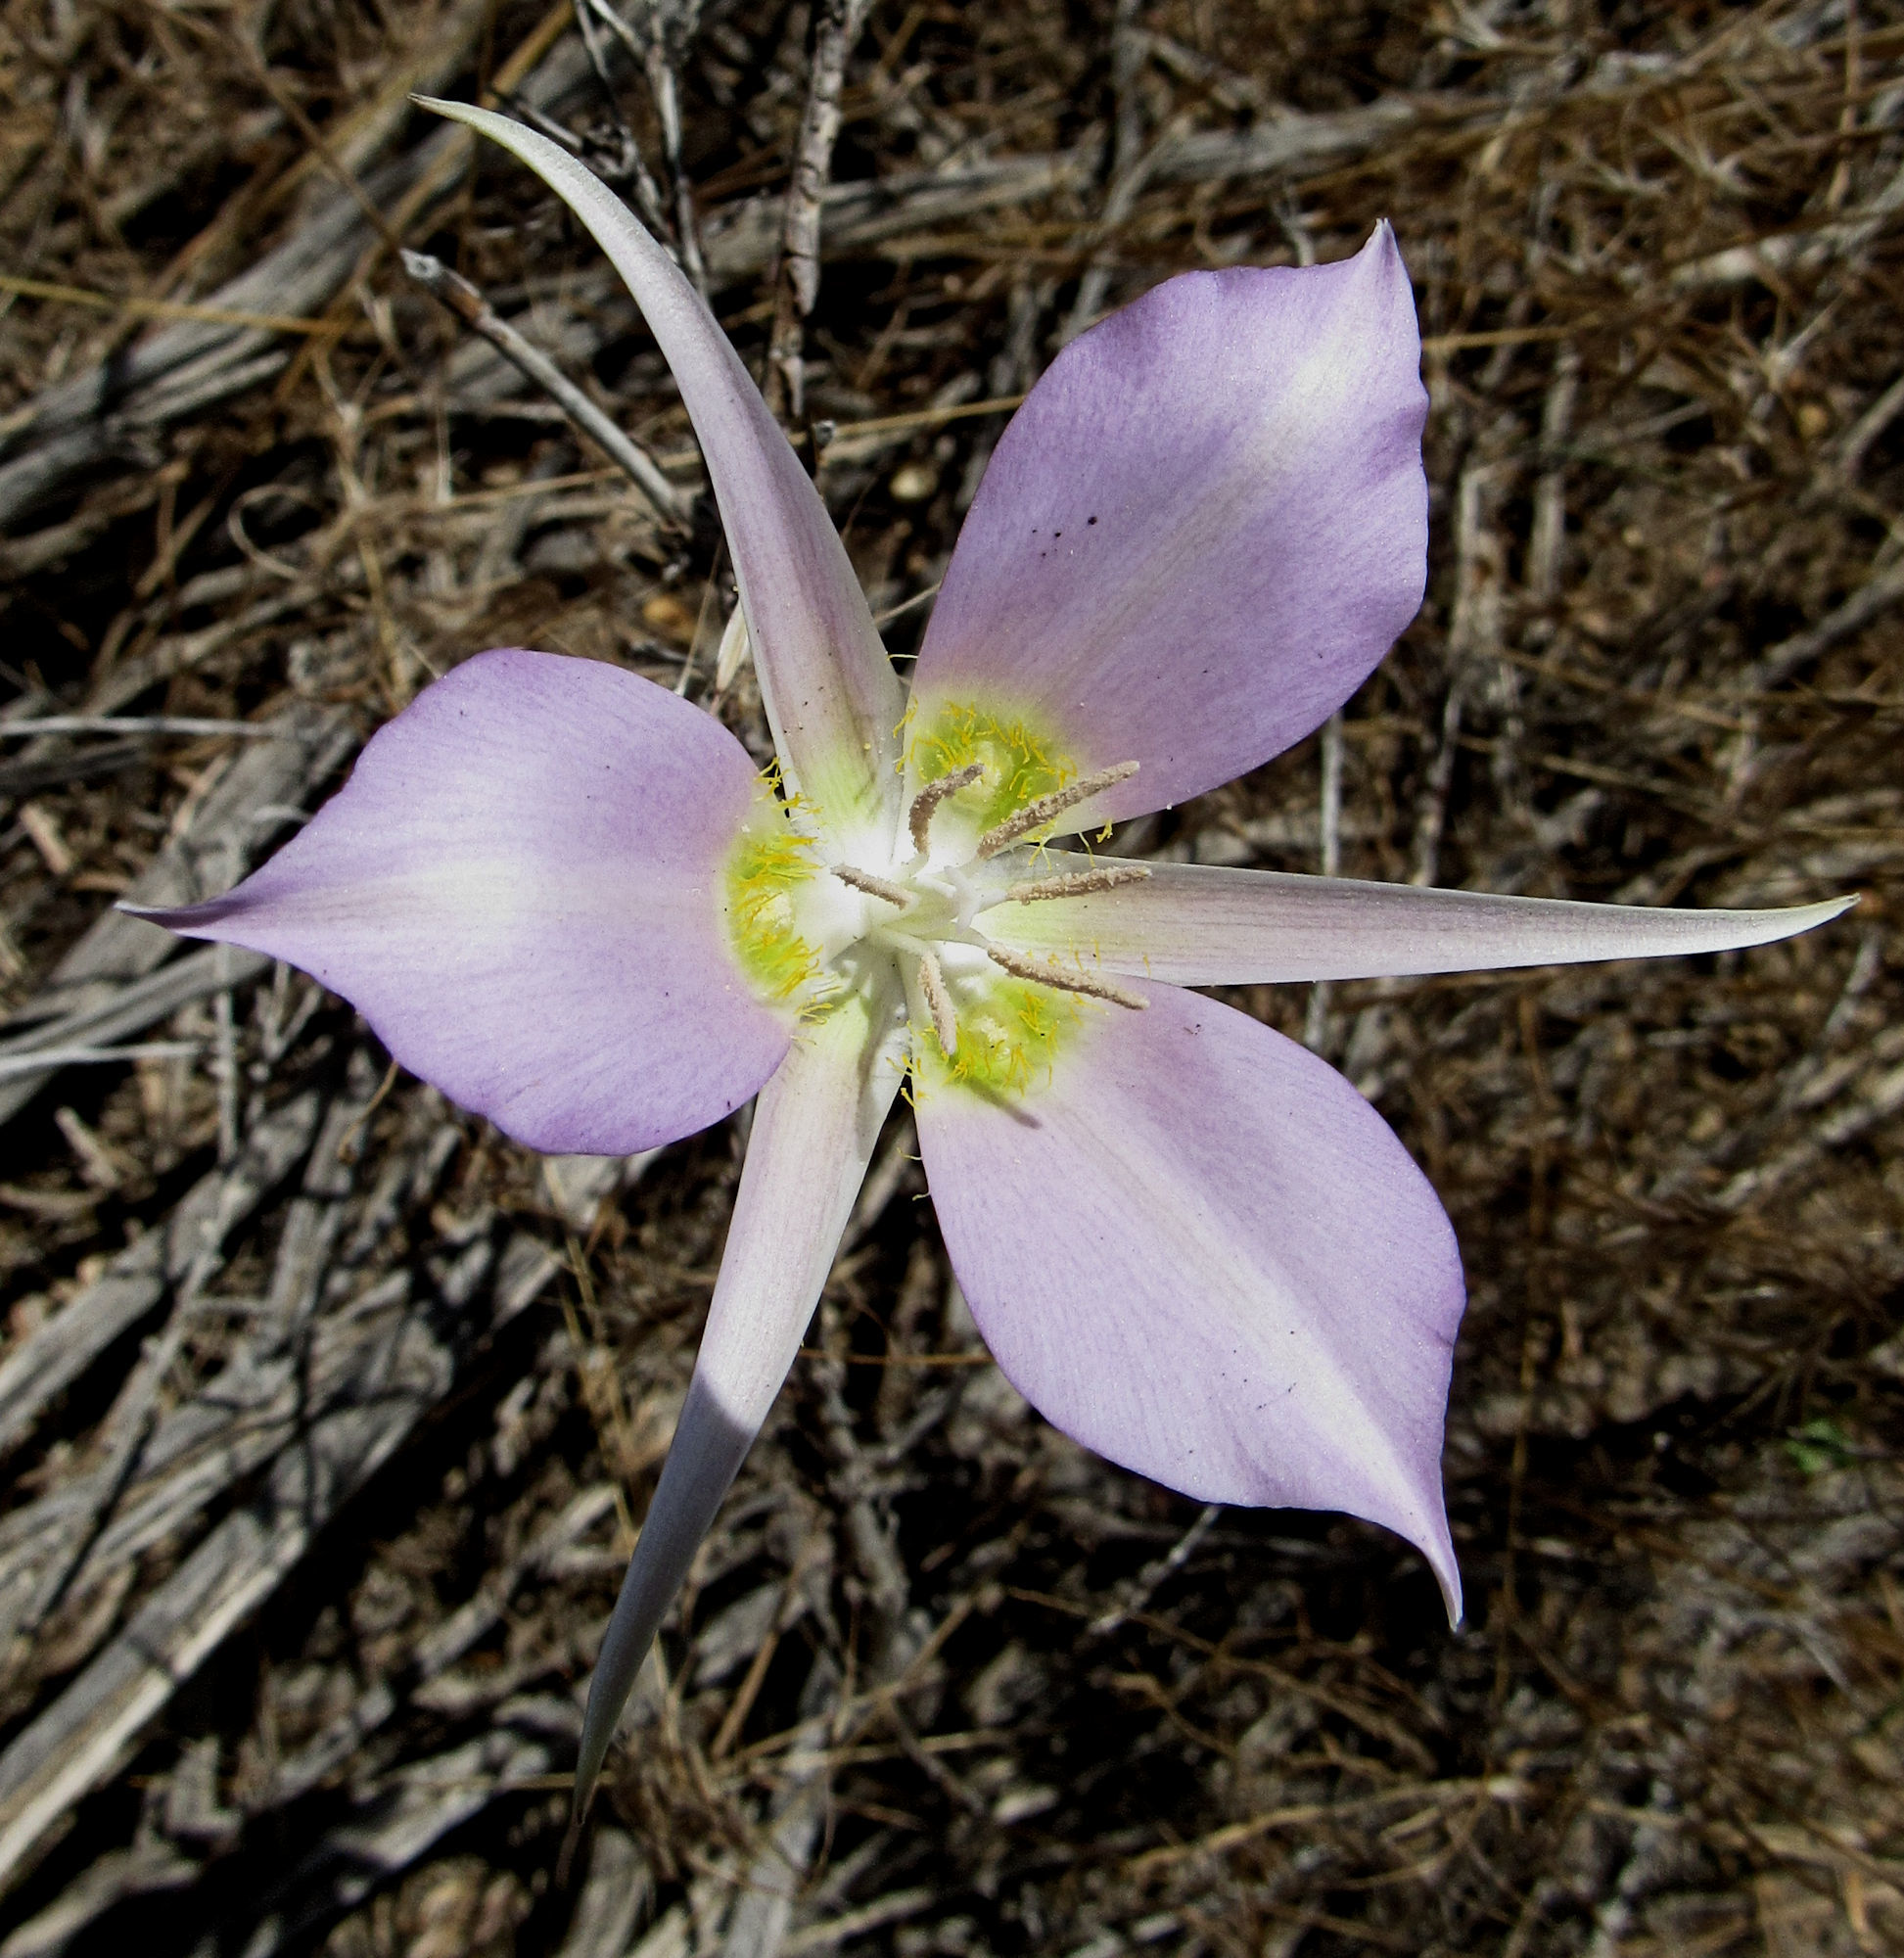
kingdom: Plantae
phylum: Tracheophyta
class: Liliopsida
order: Liliales
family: Liliaceae
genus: Calochortus
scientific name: Calochortus macrocarpus
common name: Green-band mariposa lily
